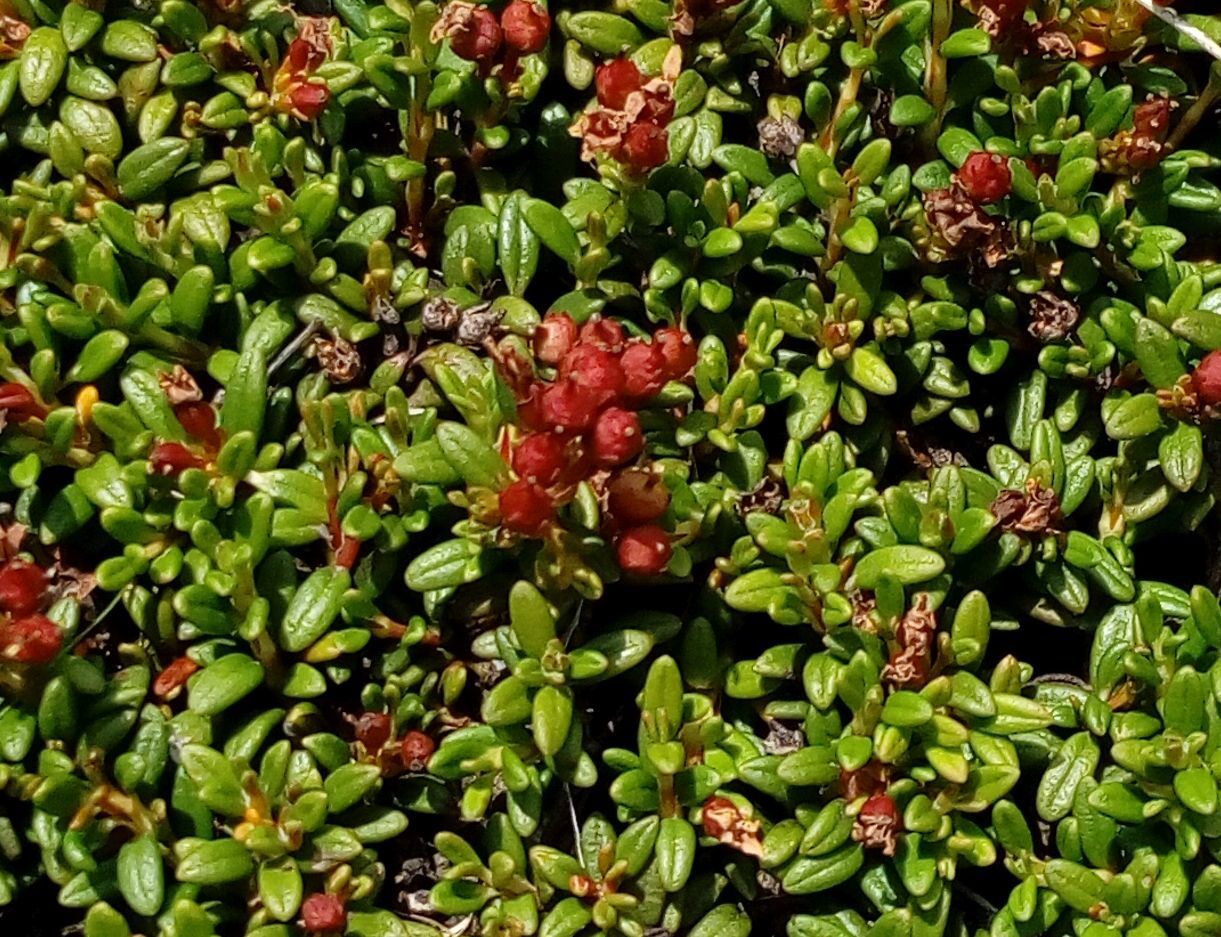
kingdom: Plantae
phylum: Tracheophyta
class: Magnoliopsida
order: Ericales
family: Ericaceae
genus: Kalmia
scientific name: Kalmia procumbens
